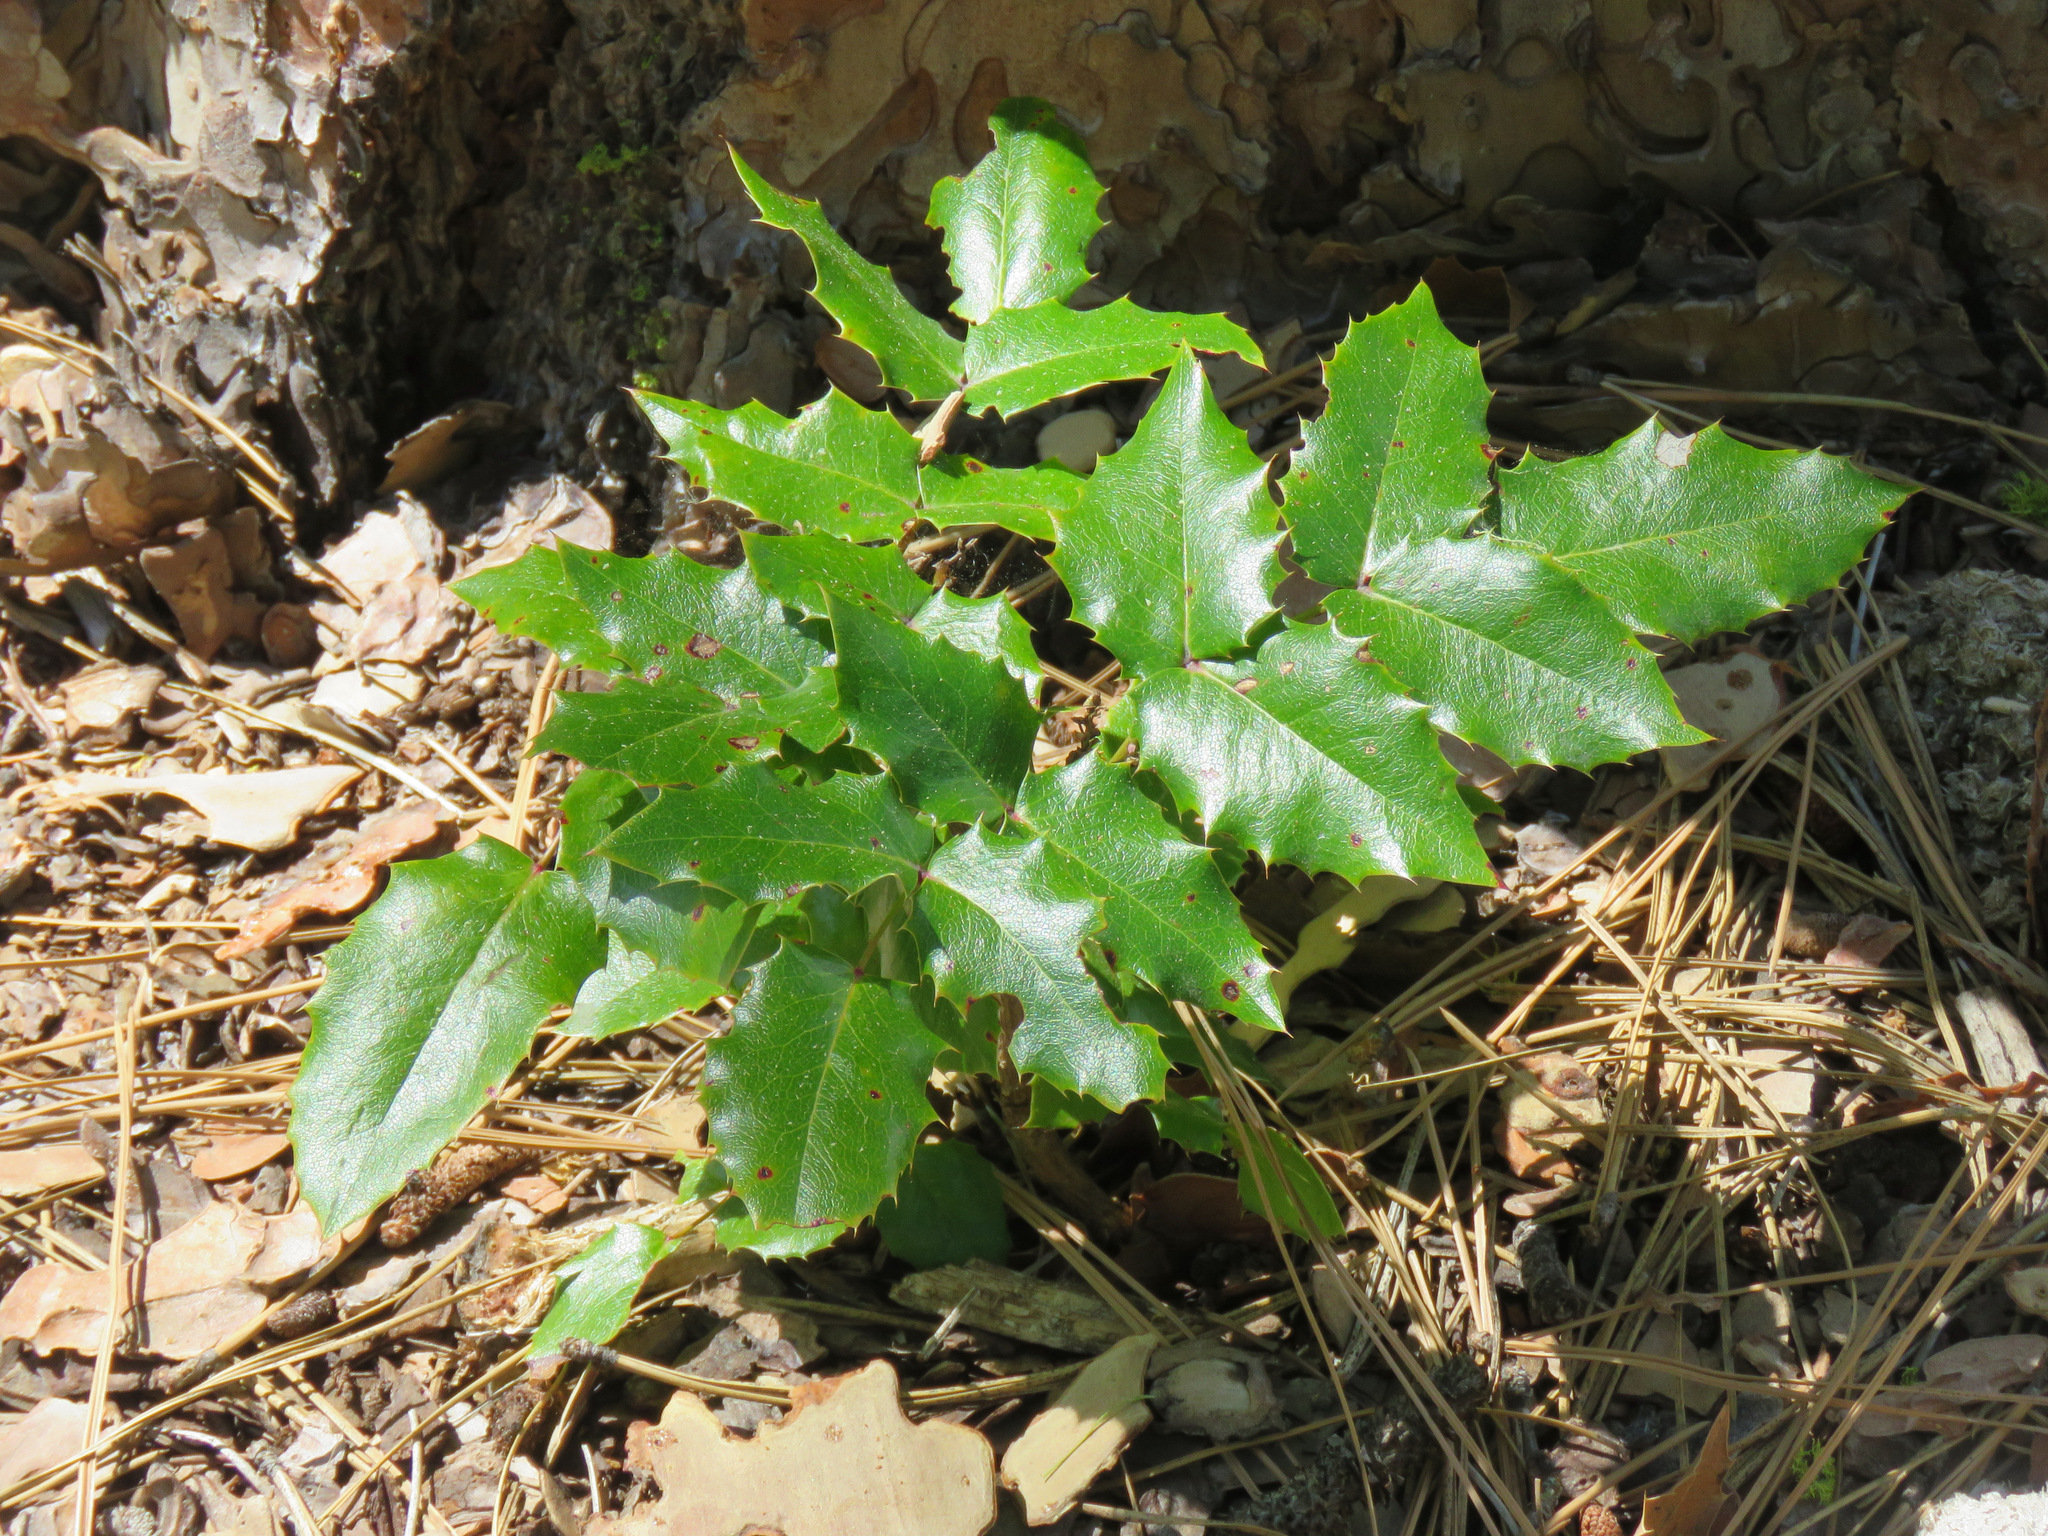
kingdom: Plantae
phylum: Tracheophyta
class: Magnoliopsida
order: Ranunculales
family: Berberidaceae
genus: Mahonia
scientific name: Mahonia aquifolium
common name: Oregon-grape
